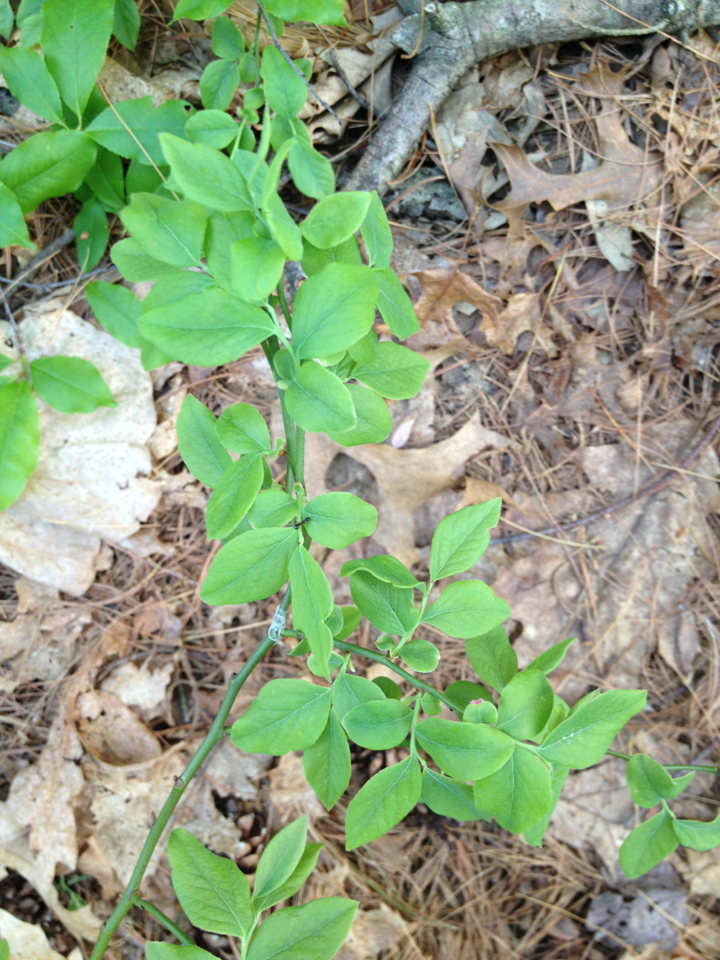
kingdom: Plantae
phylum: Tracheophyta
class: Magnoliopsida
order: Ericales
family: Ericaceae
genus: Vaccinium
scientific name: Vaccinium pallidum
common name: Blue ridge blueberry
